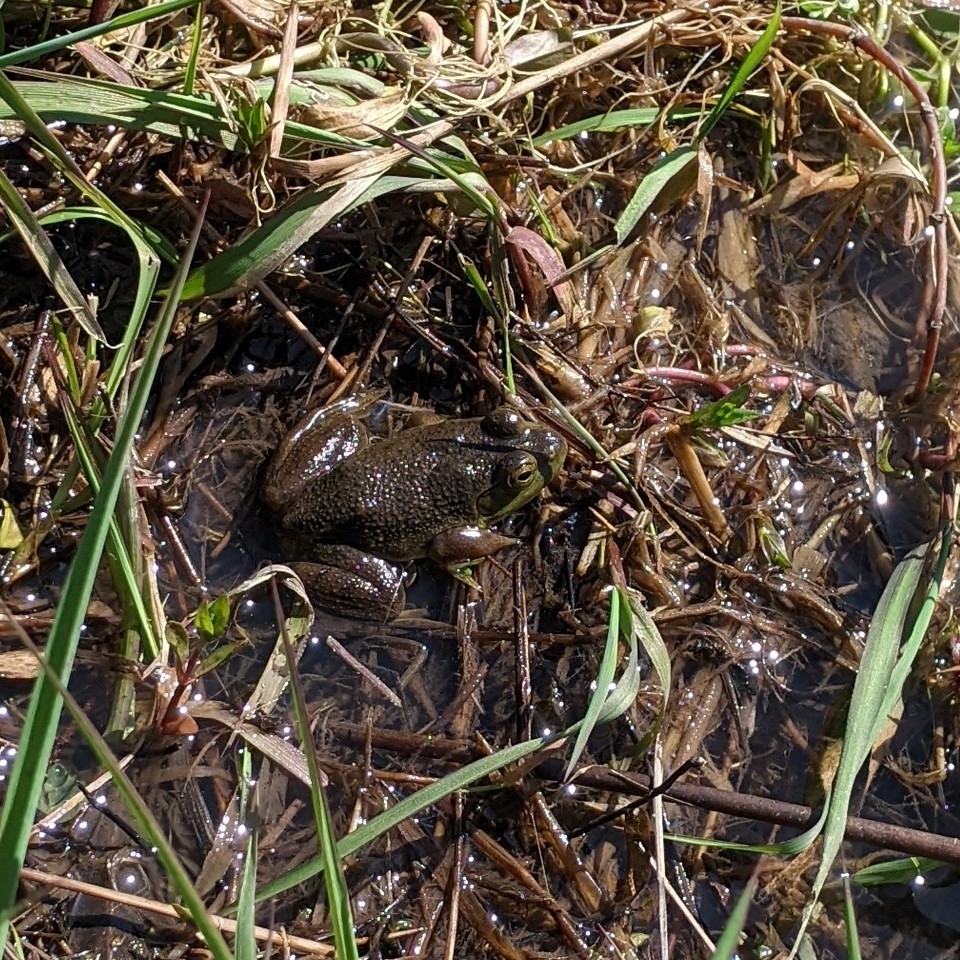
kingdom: Animalia
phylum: Chordata
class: Amphibia
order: Anura
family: Ranidae
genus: Lithobates
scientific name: Lithobates catesbeianus
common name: American bullfrog
